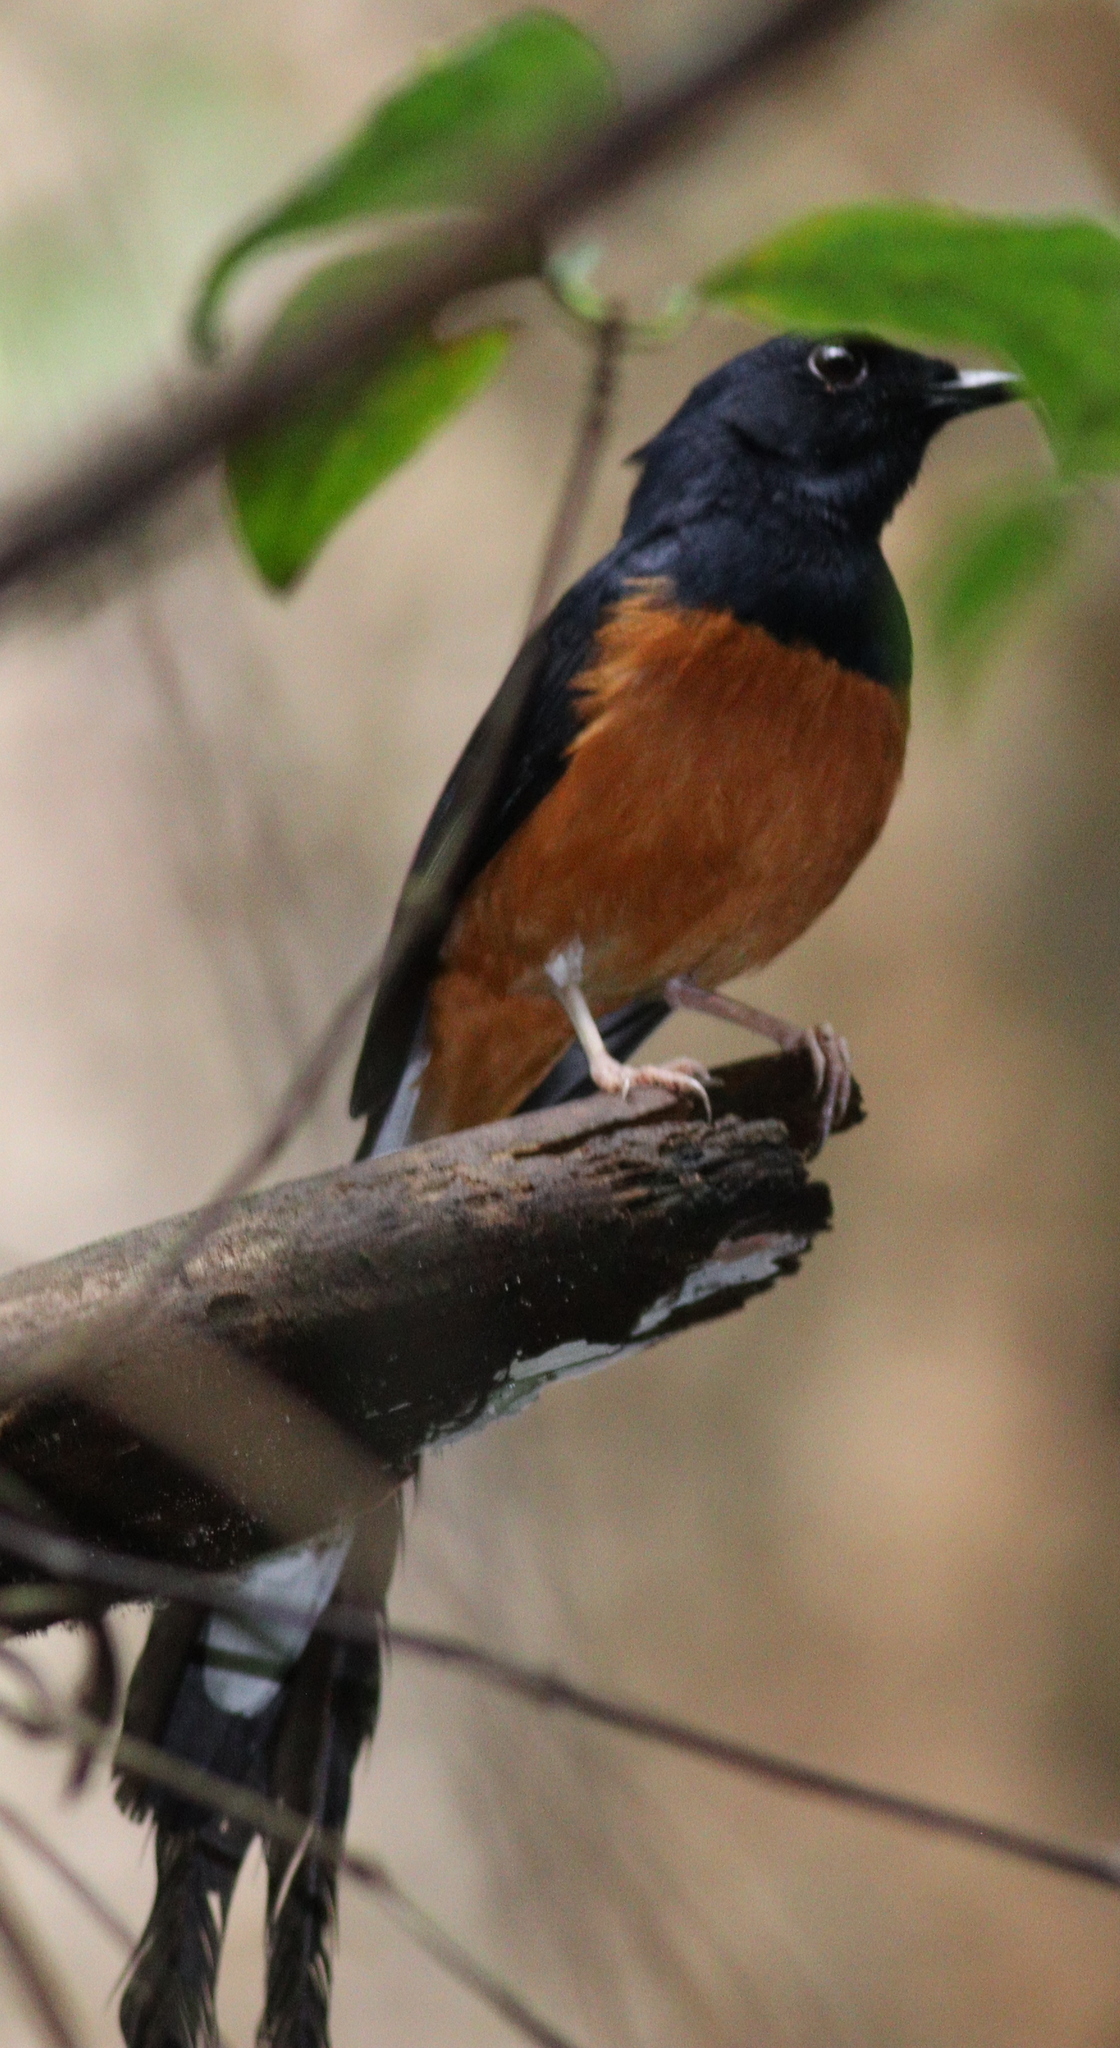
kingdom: Animalia
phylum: Chordata
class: Aves
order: Passeriformes
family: Muscicapidae
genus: Copsychus
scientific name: Copsychus malabaricus
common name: White-rumped shama
